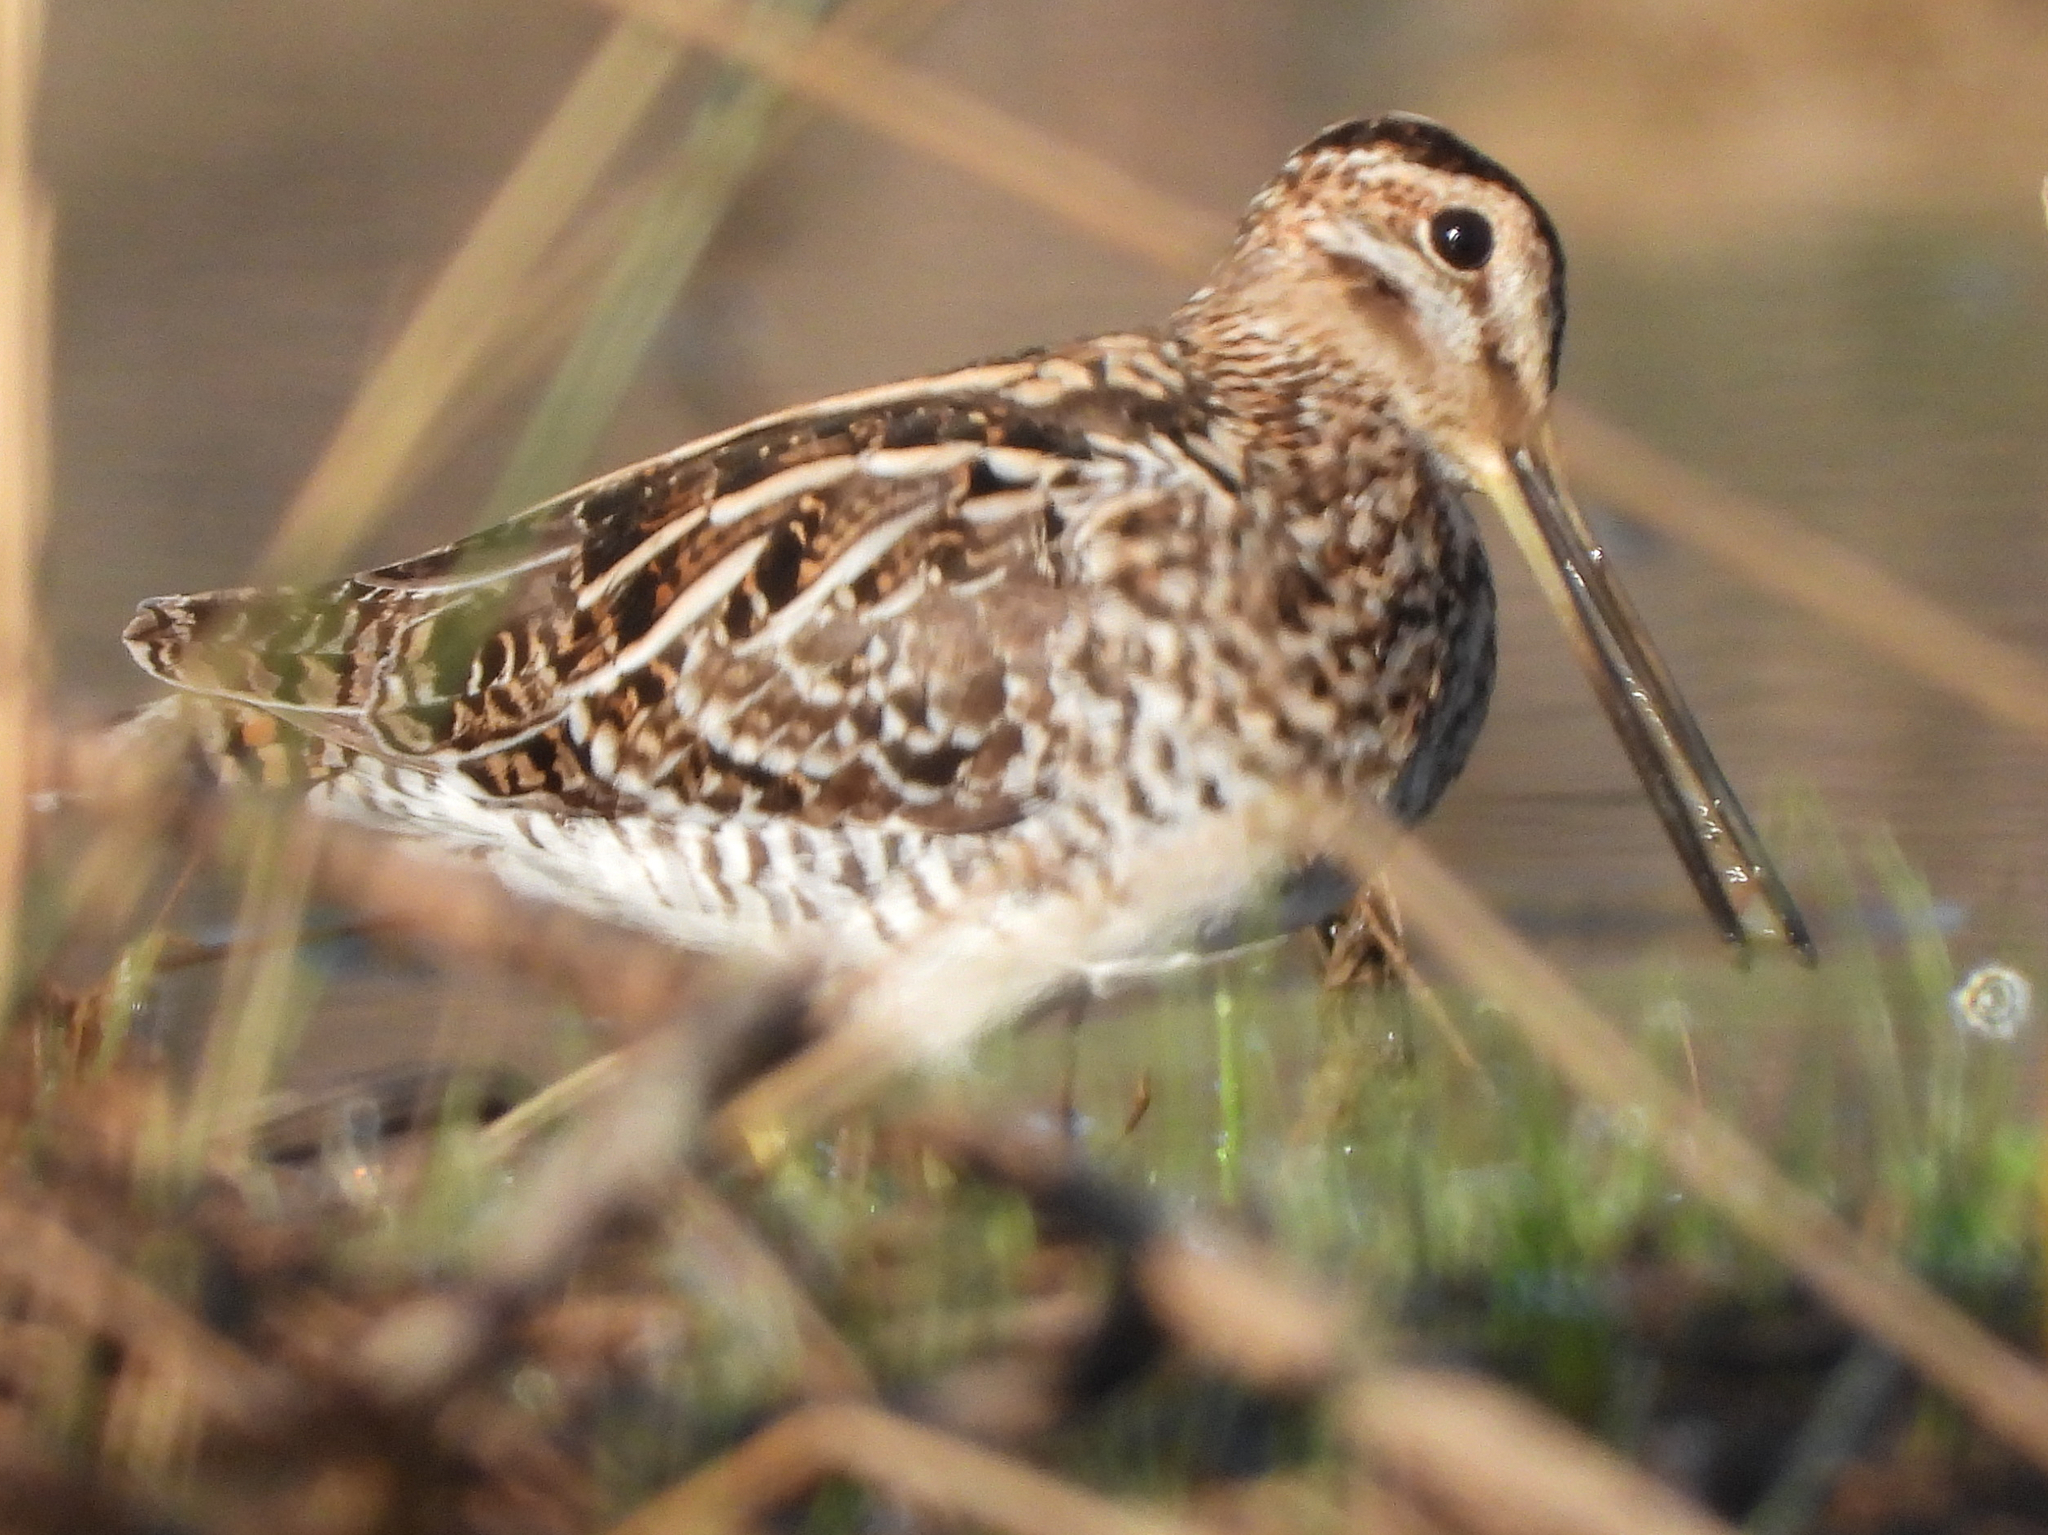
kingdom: Animalia
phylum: Chordata
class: Aves
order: Charadriiformes
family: Scolopacidae
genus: Gallinago
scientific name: Gallinago delicata
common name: Wilson's snipe
